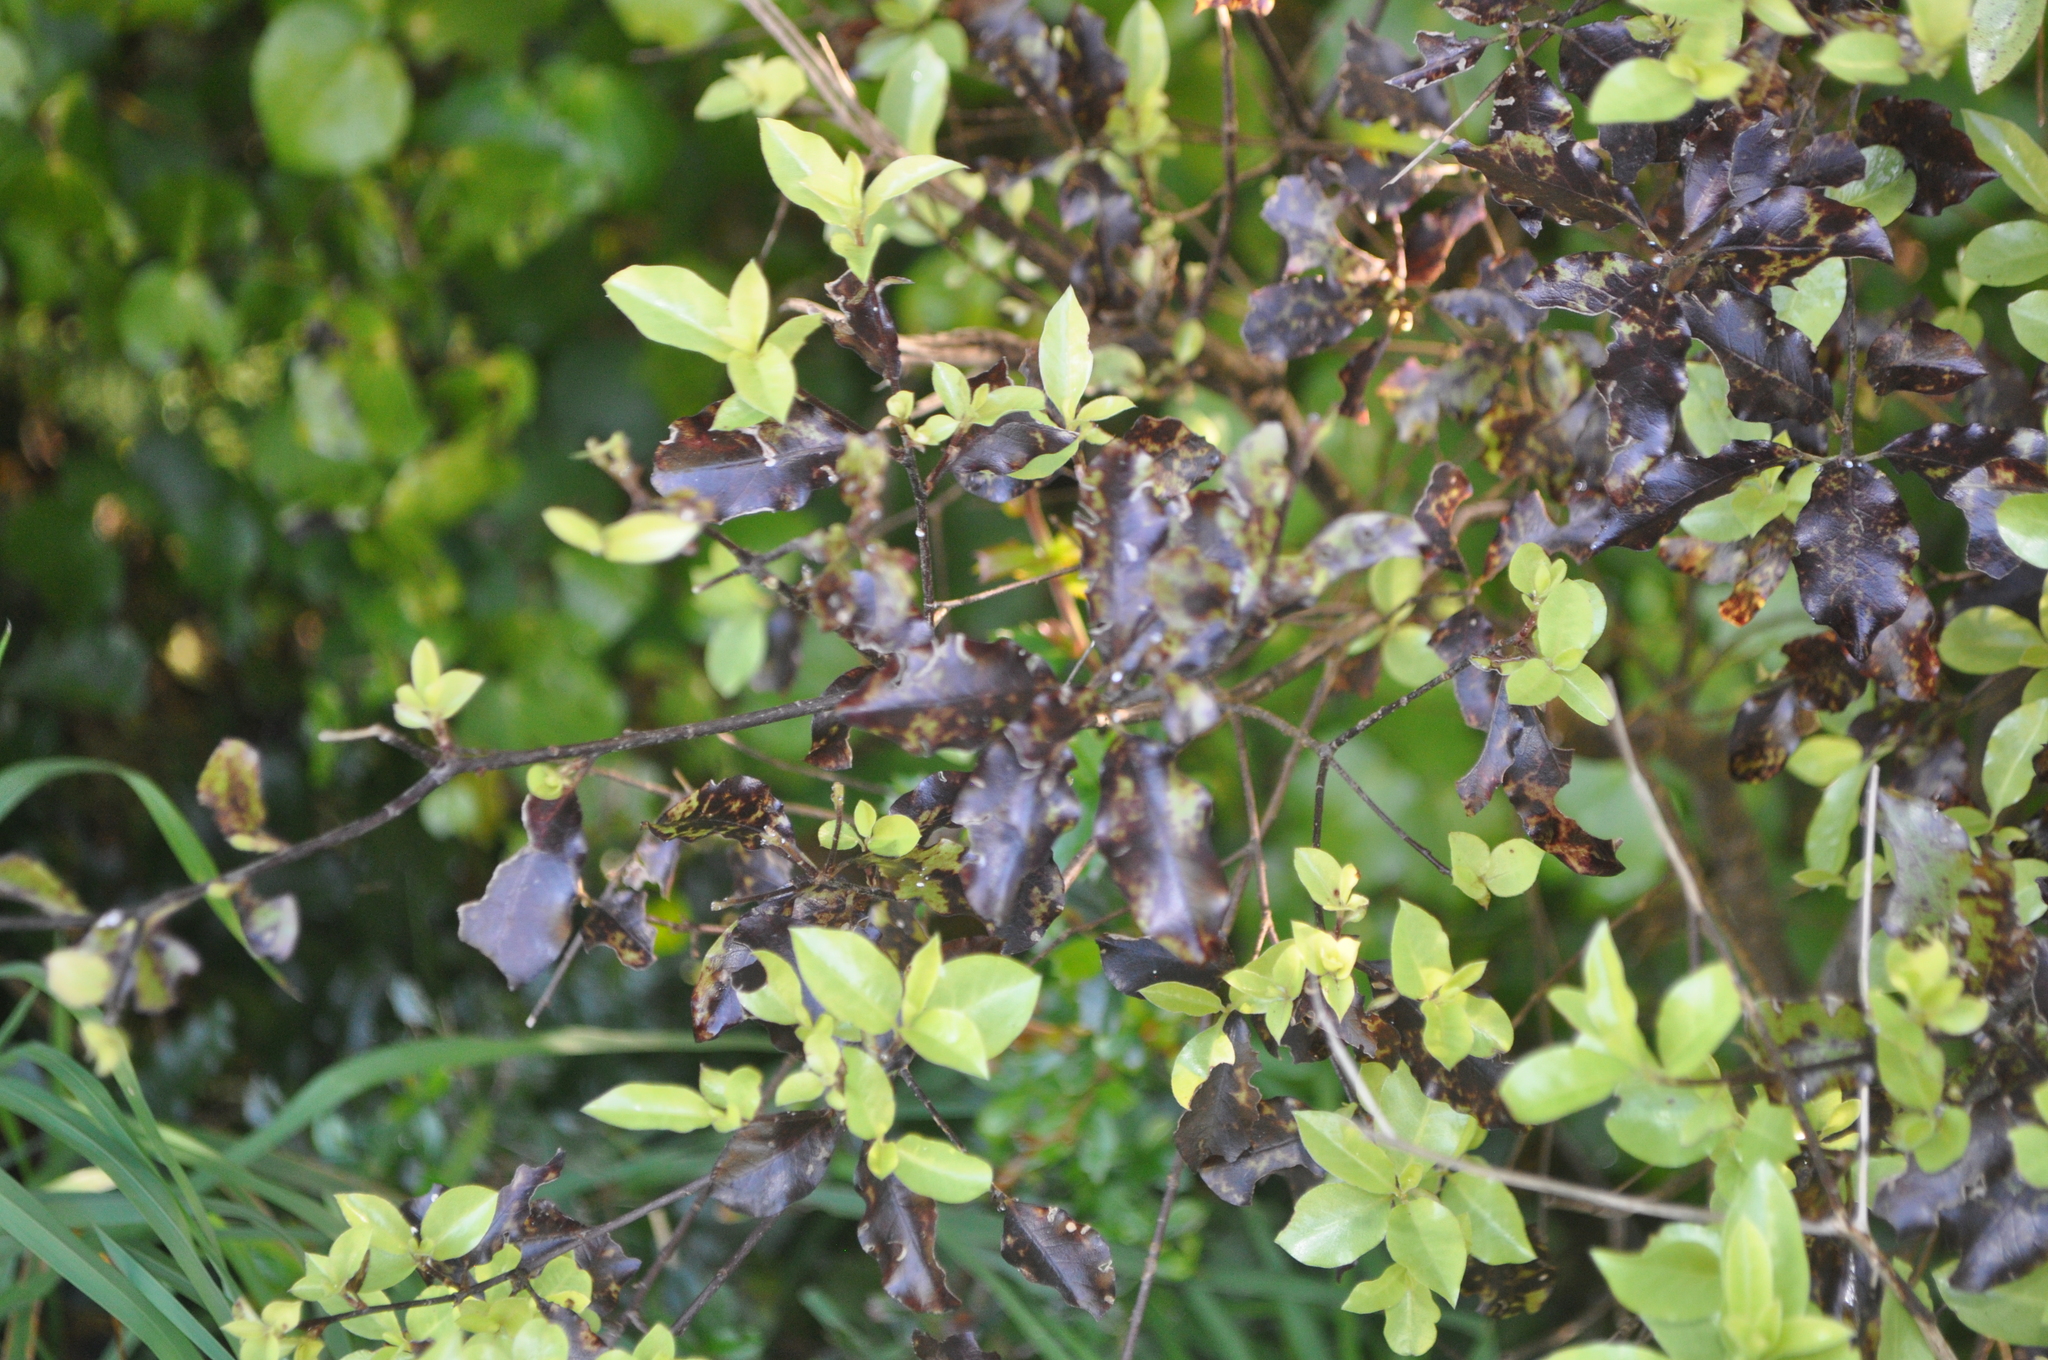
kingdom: Plantae
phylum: Tracheophyta
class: Magnoliopsida
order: Apiales
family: Pittosporaceae
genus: Pittosporum
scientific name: Pittosporum tenuifolium
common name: Kohuhu
